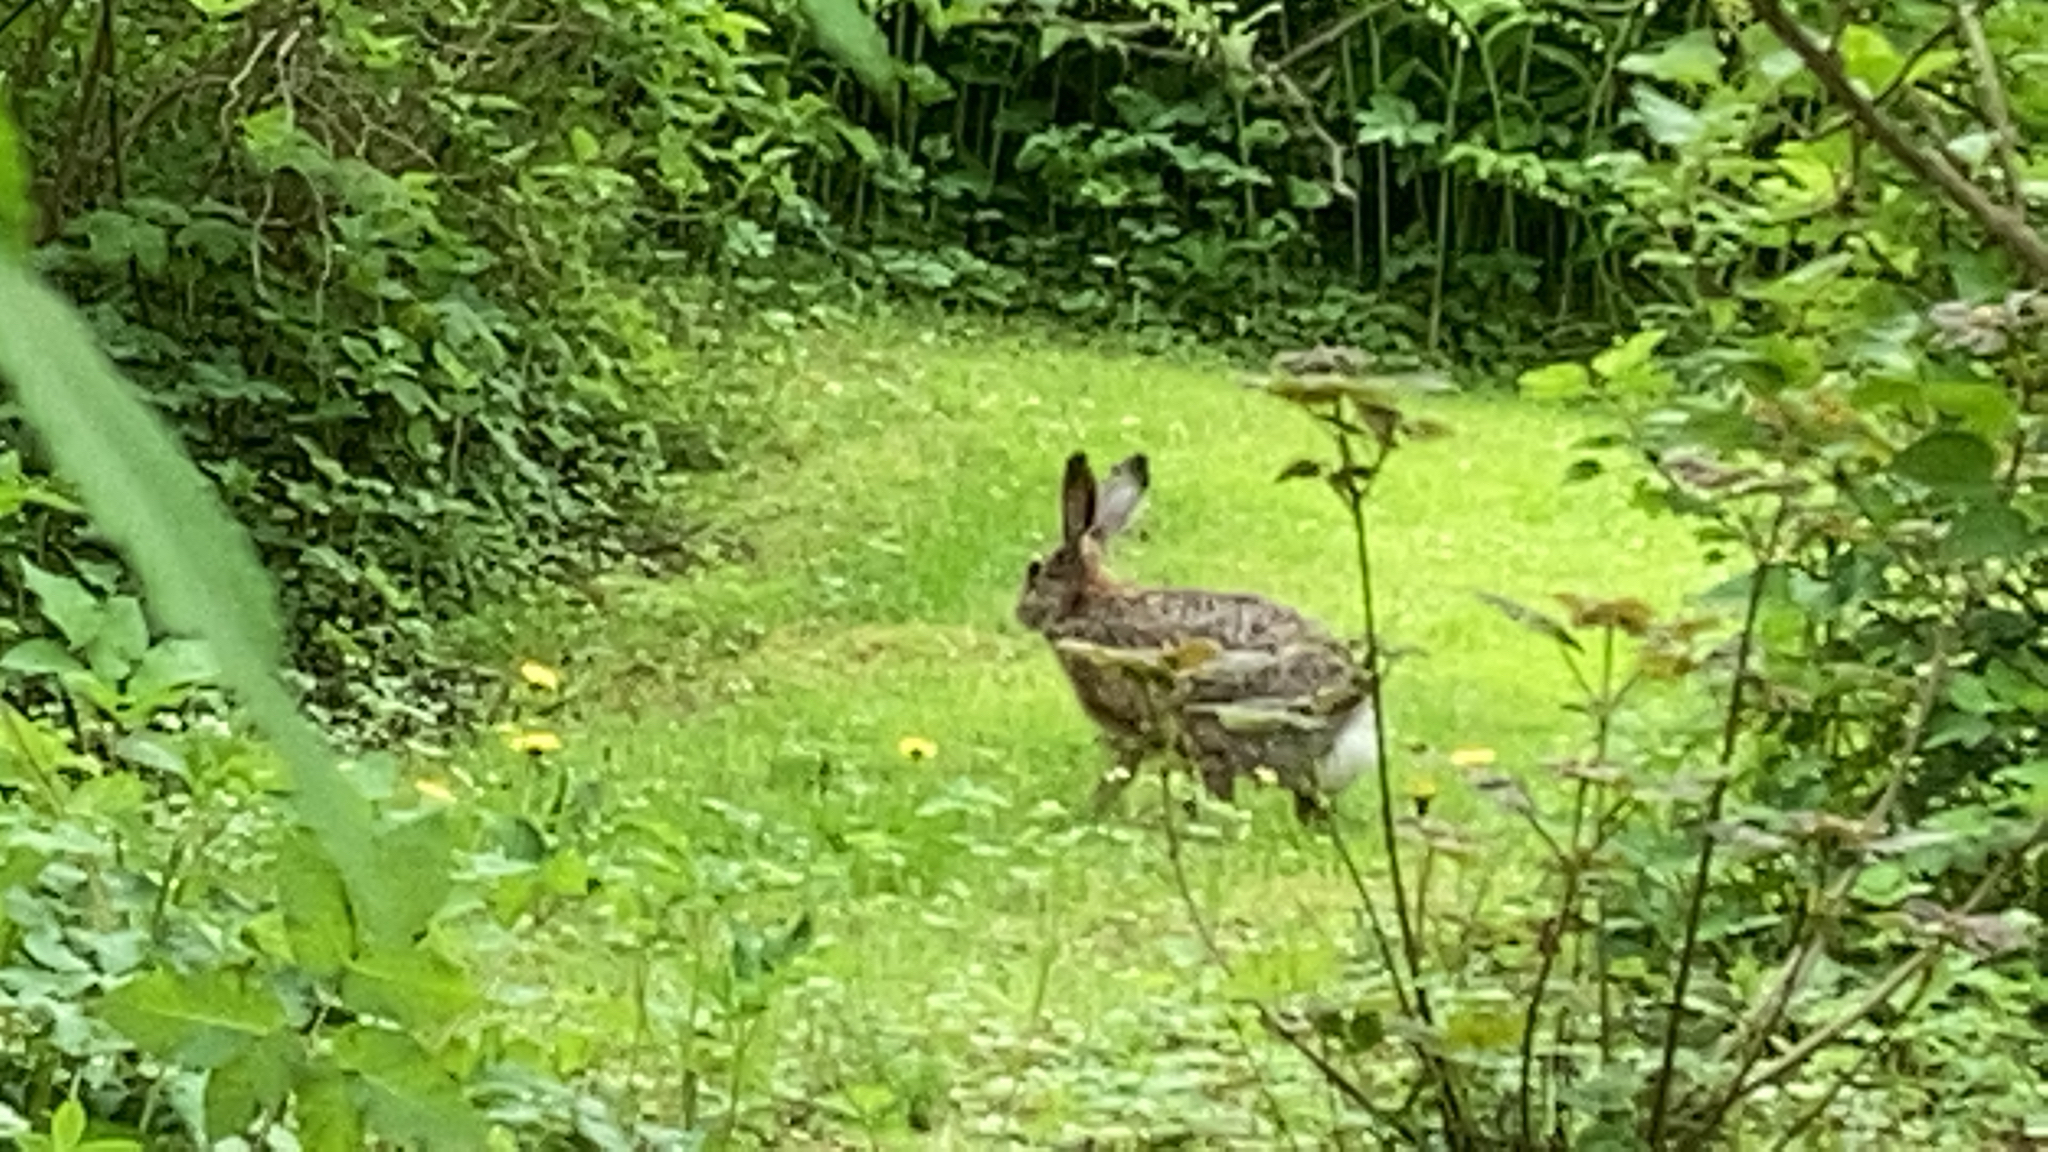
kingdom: Animalia
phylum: Chordata
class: Mammalia
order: Lagomorpha
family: Leporidae
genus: Lepus
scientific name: Lepus europaeus
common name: European hare
